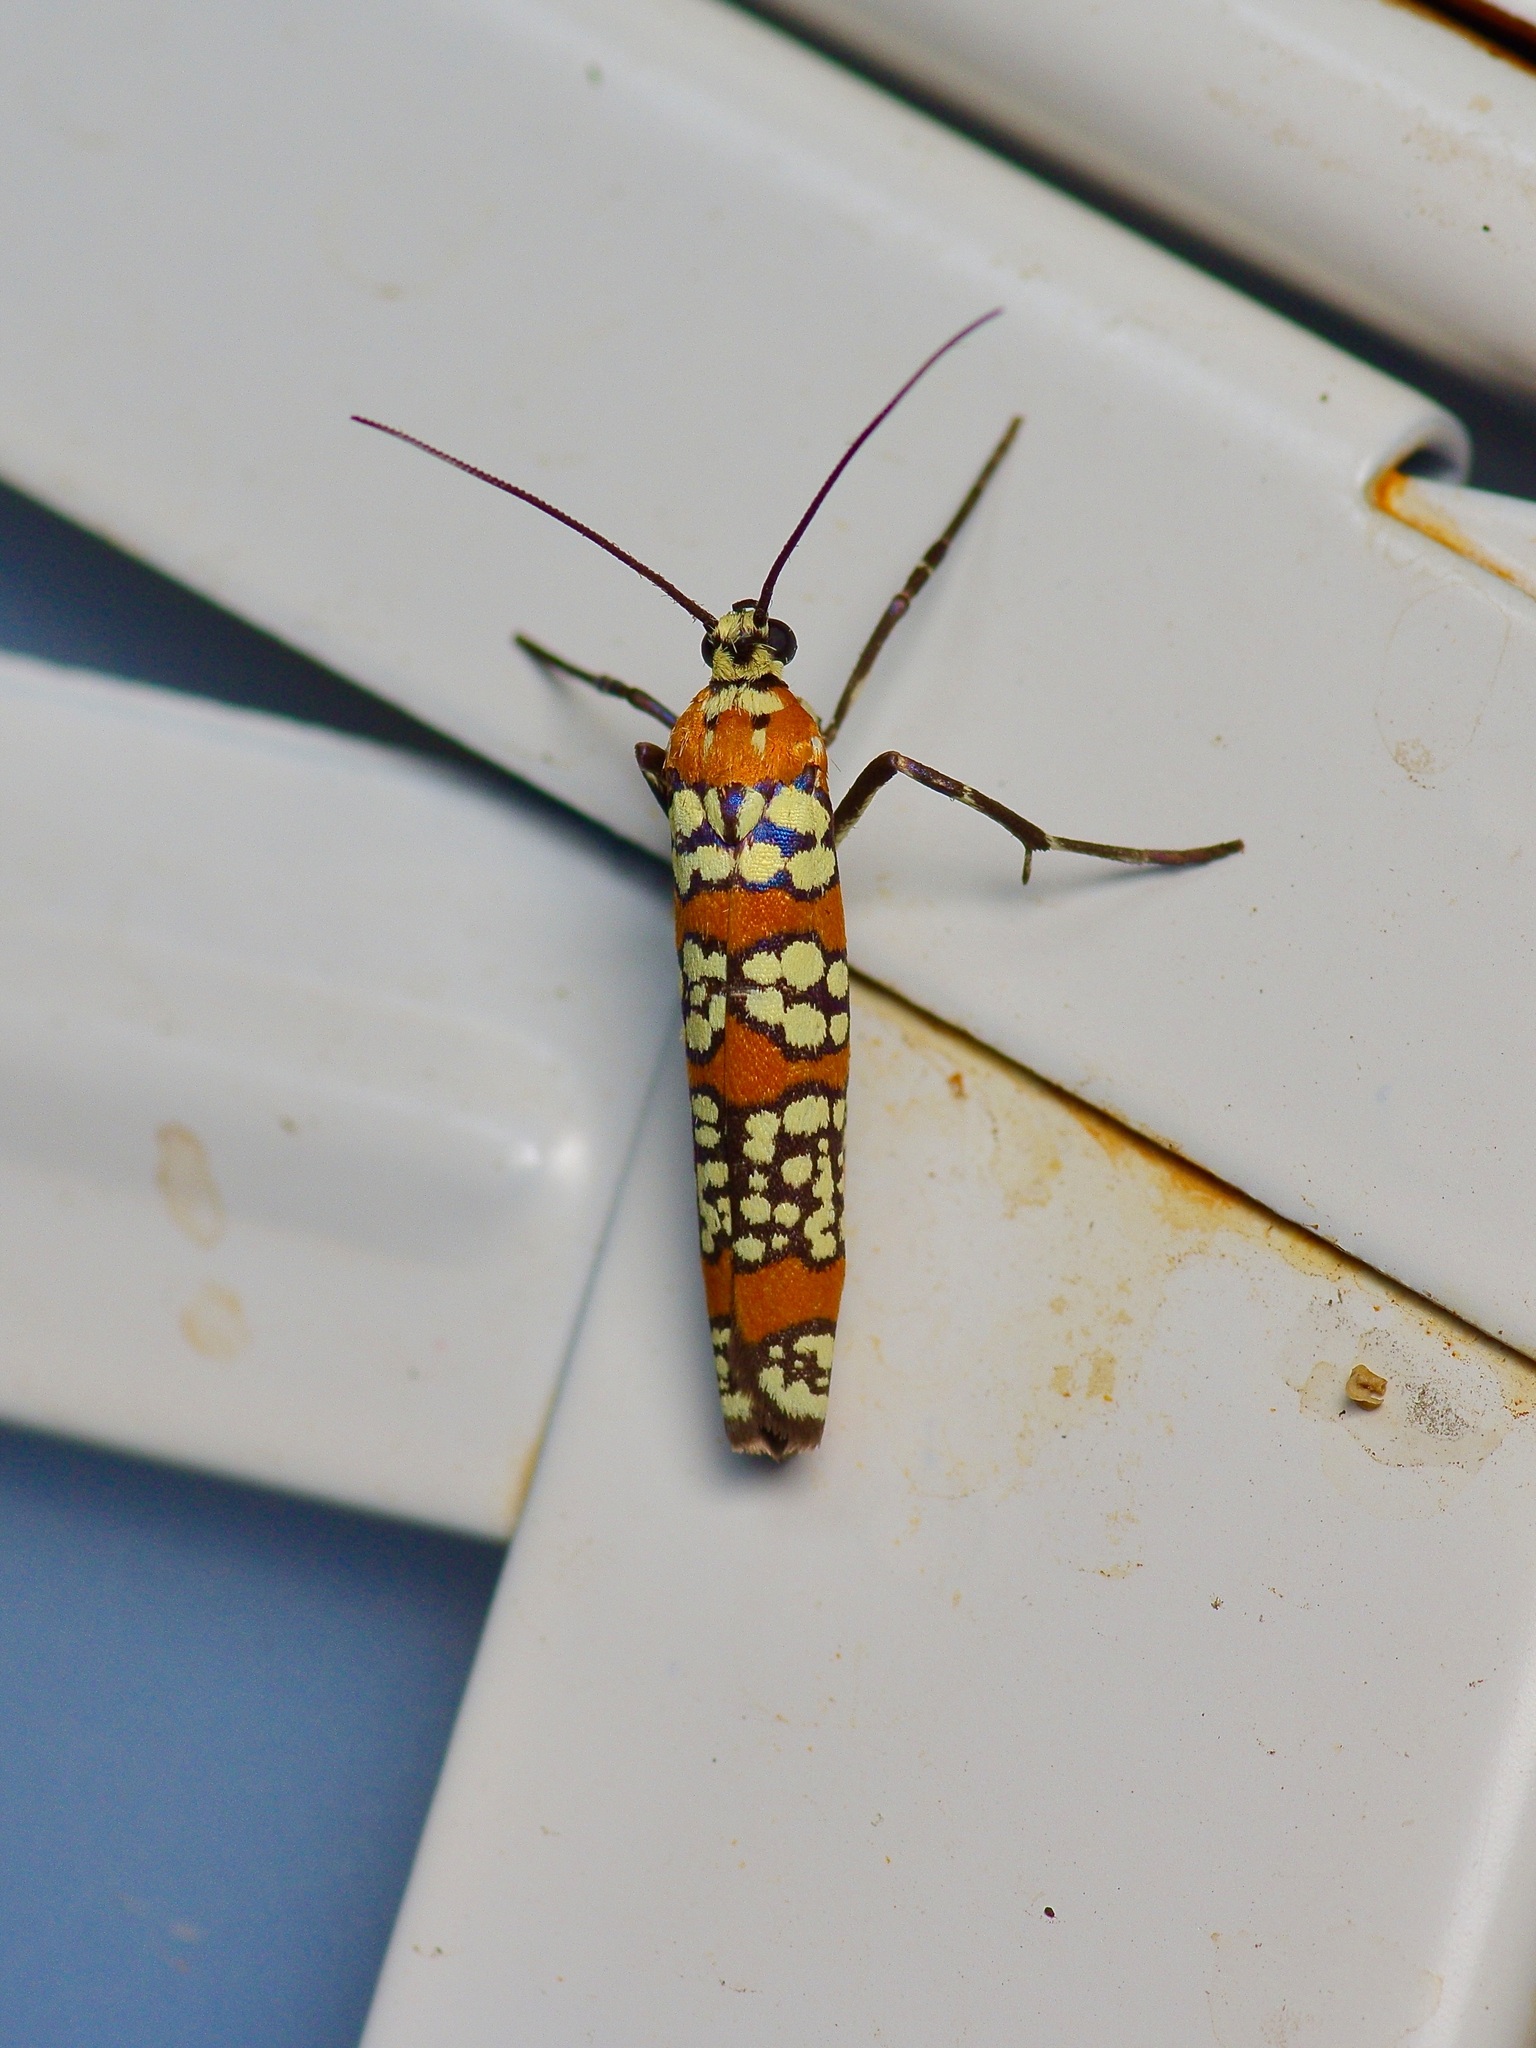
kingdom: Animalia
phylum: Arthropoda
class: Insecta
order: Lepidoptera
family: Attevidae
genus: Atteva
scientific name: Atteva punctella
